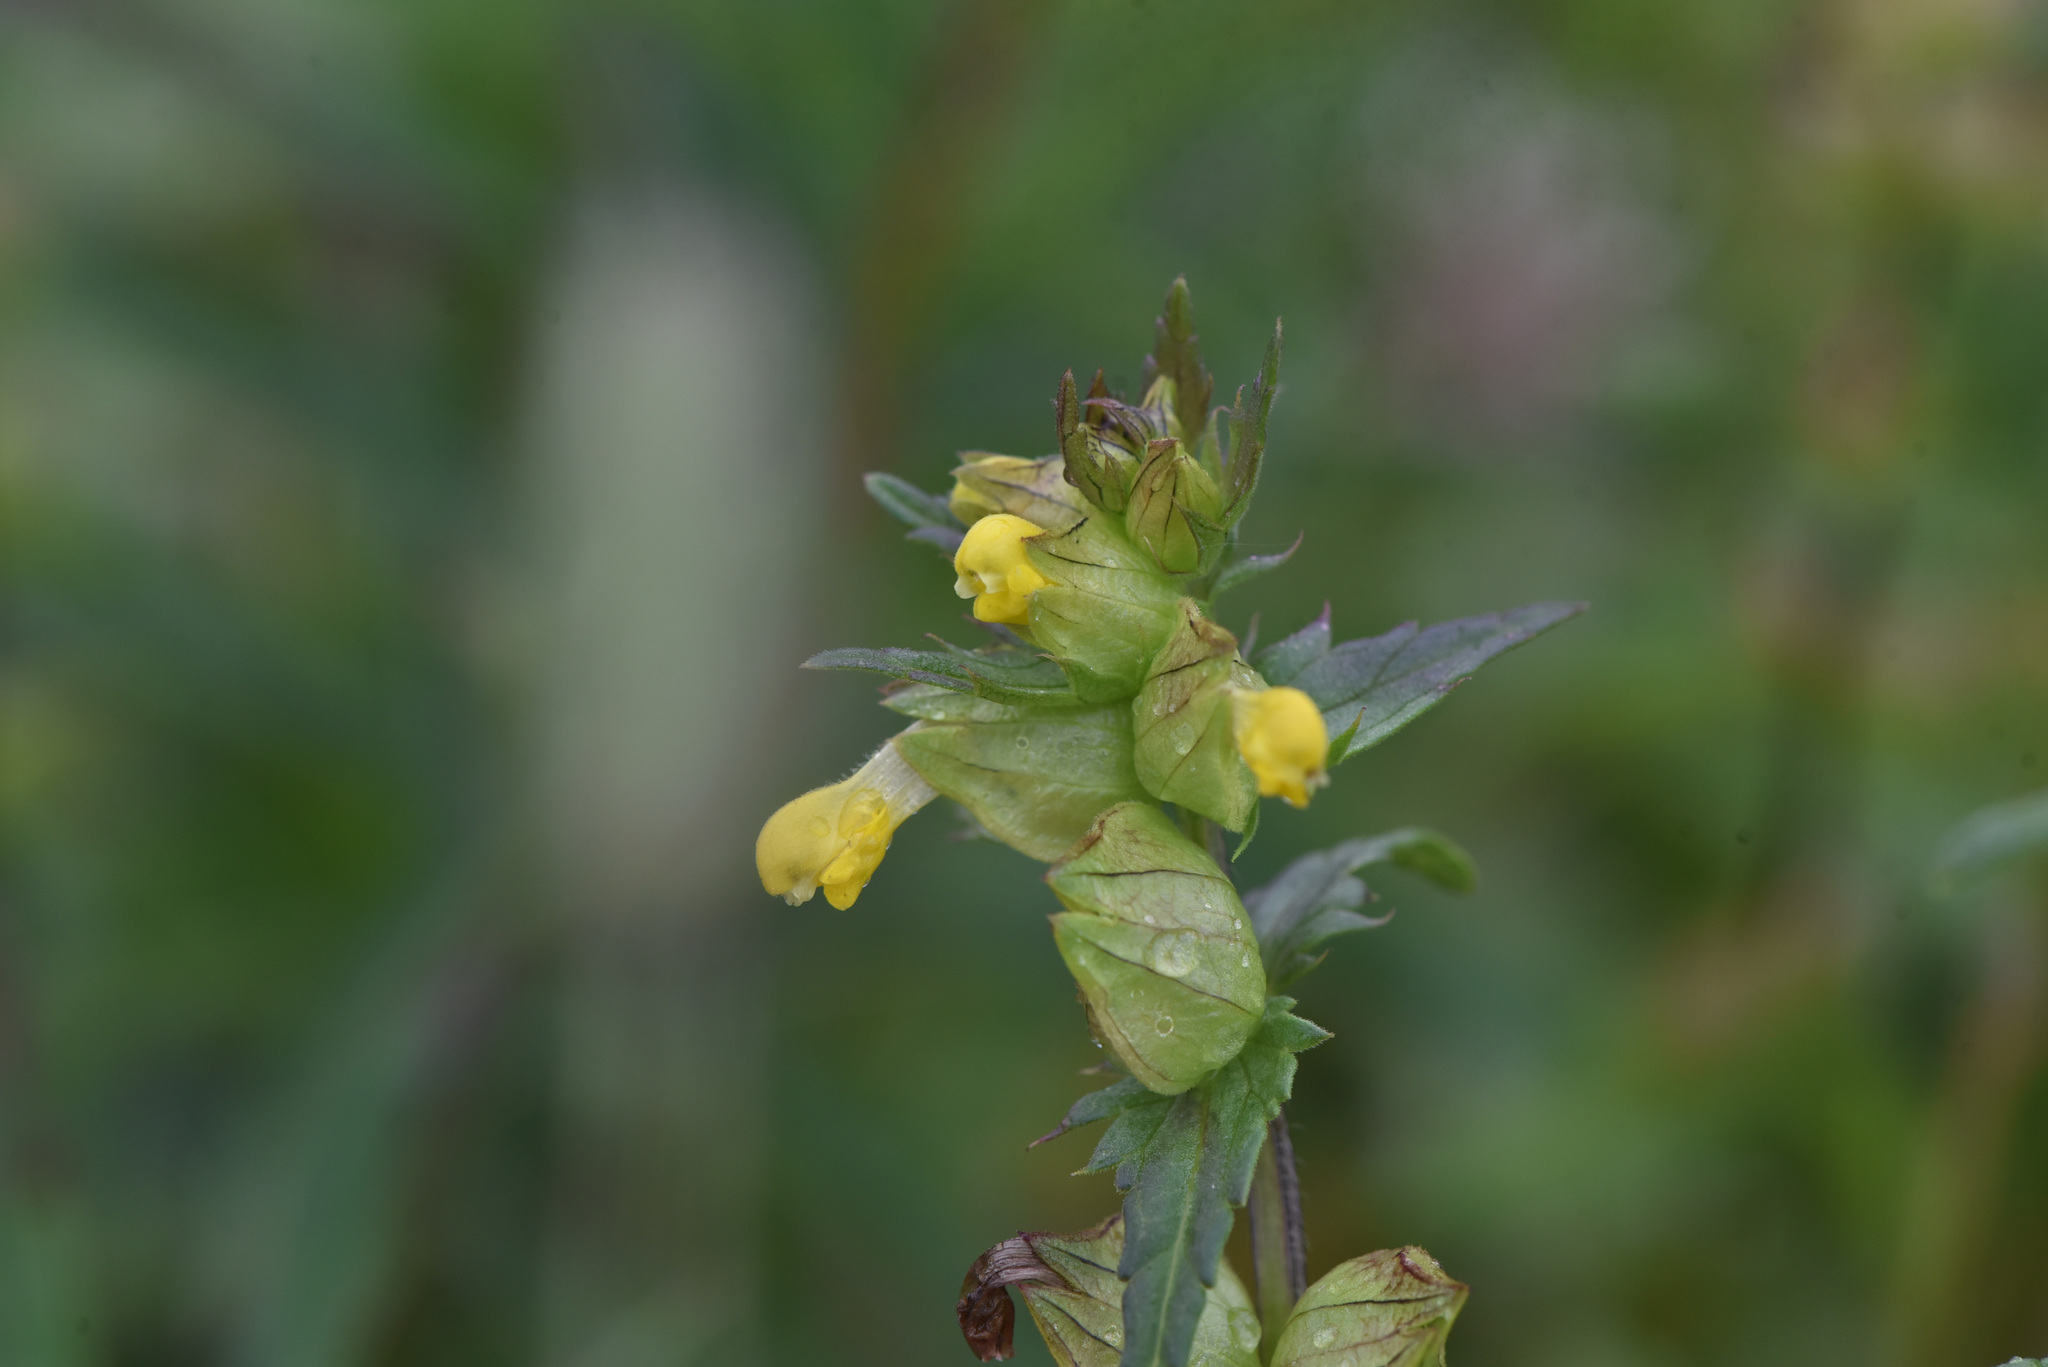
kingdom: Plantae
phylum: Tracheophyta
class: Magnoliopsida
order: Lamiales
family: Orobanchaceae
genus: Rhinanthus
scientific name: Rhinanthus minor
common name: Yellow-rattle
